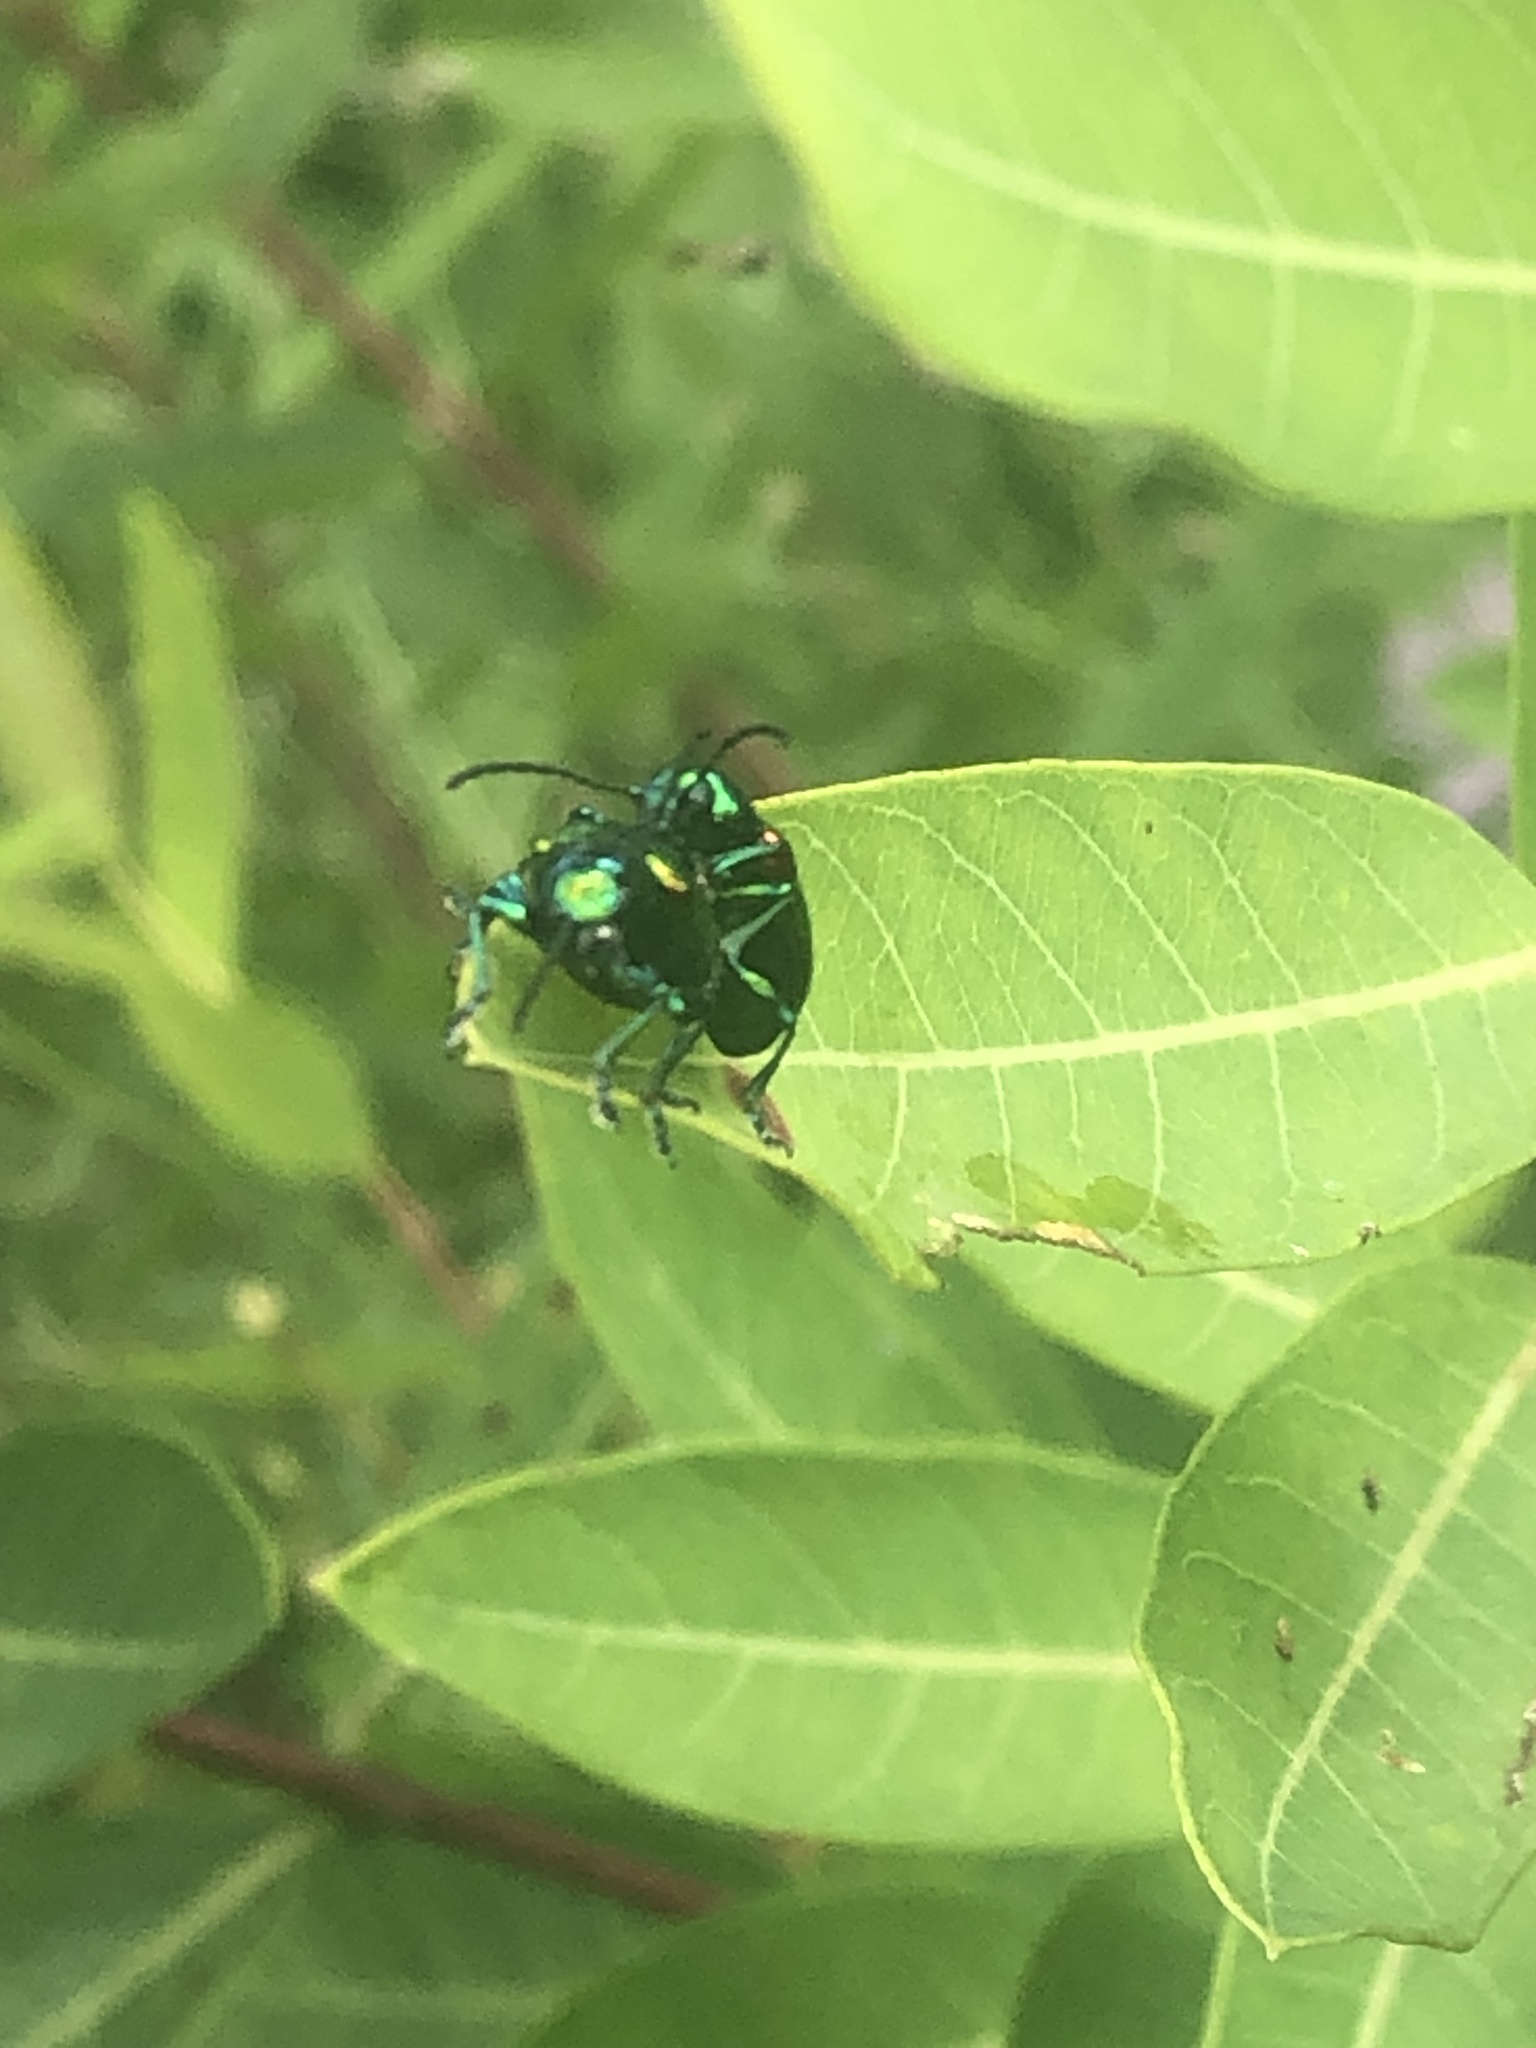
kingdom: Animalia
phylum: Arthropoda
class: Insecta
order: Coleoptera
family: Chrysomelidae
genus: Chrysochus
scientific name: Chrysochus auratus
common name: Dogbane leaf beetle
